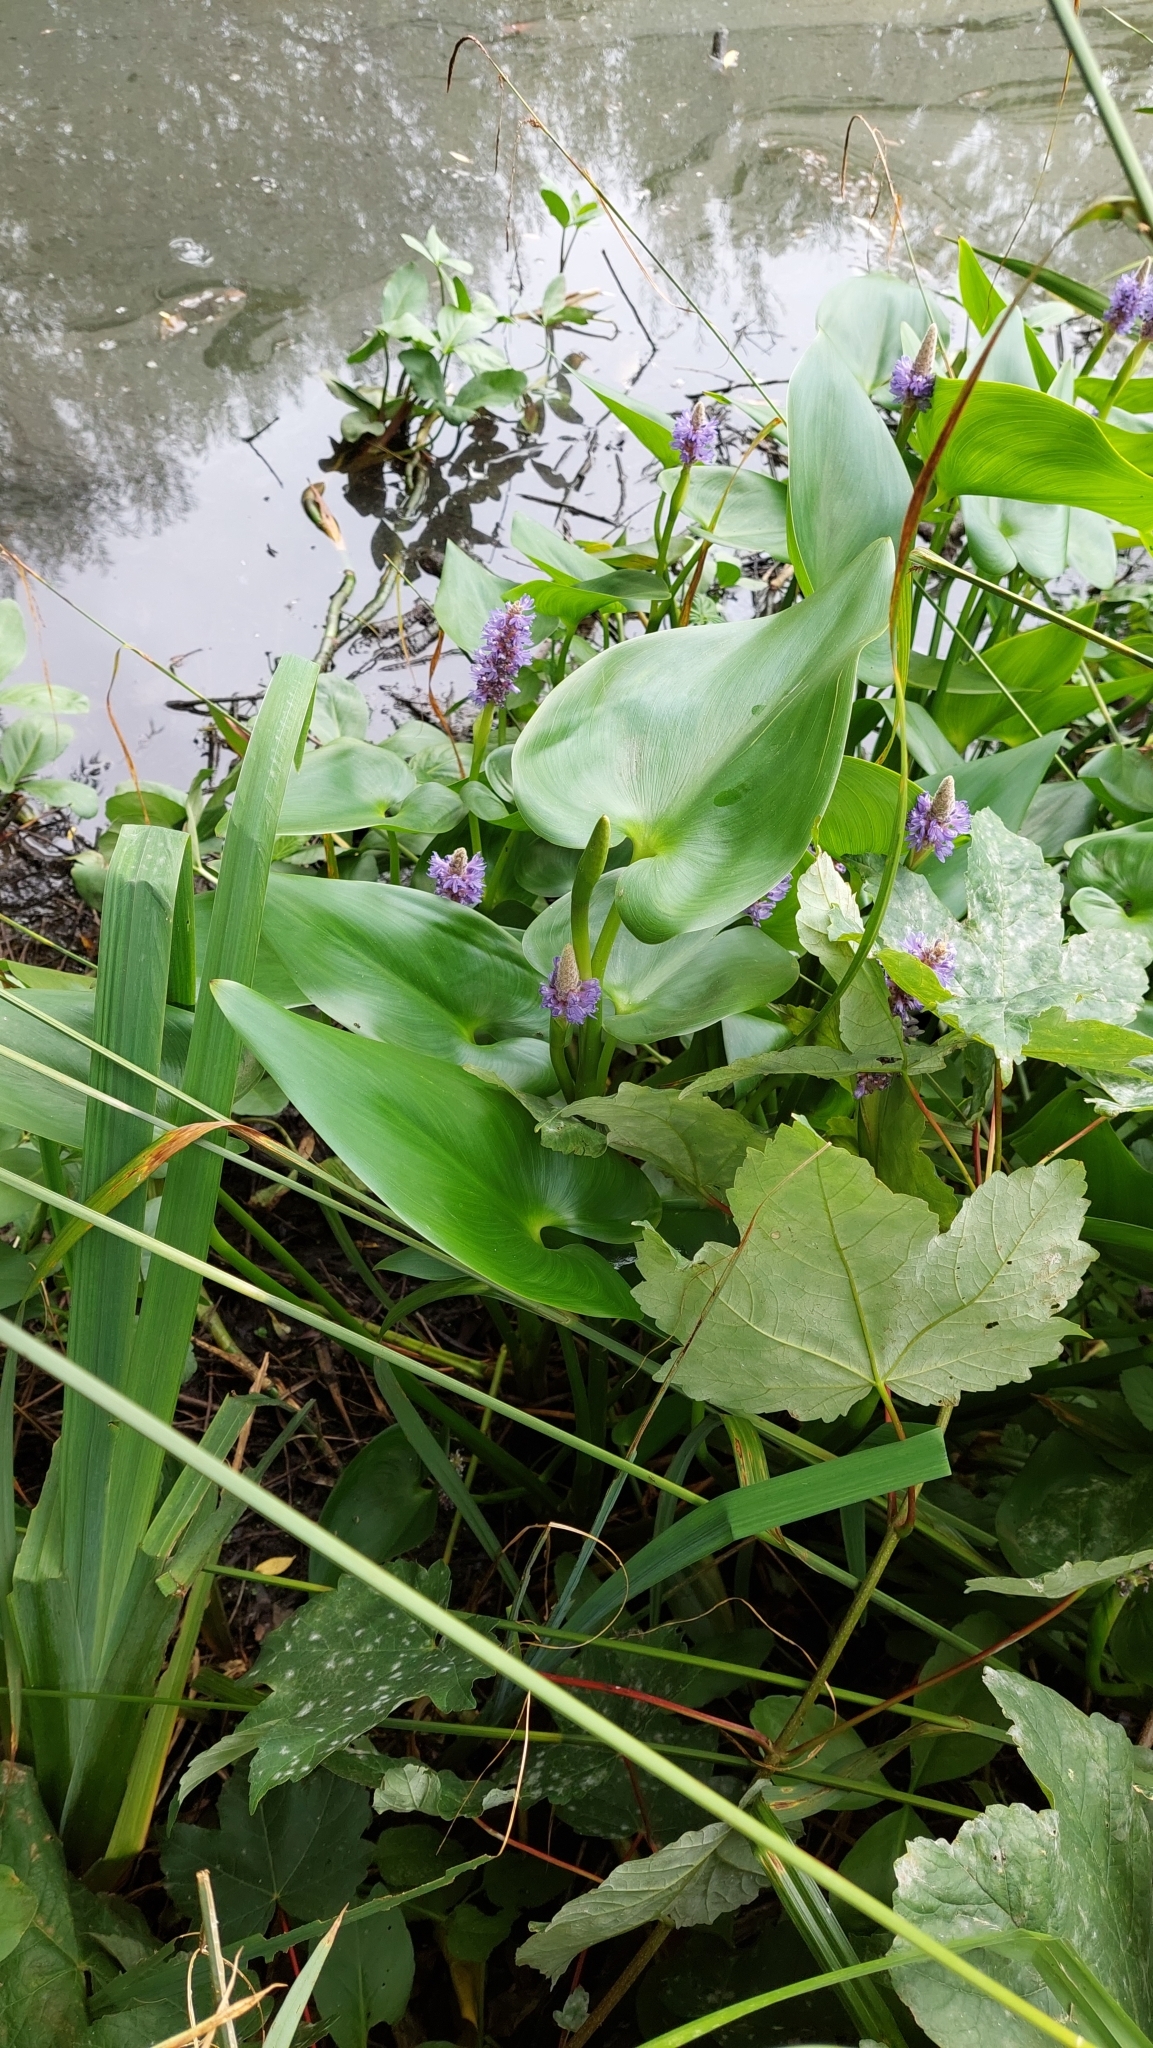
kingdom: Plantae
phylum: Tracheophyta
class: Liliopsida
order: Commelinales
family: Pontederiaceae
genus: Pontederia
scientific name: Pontederia cordata
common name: Pickerelweed
